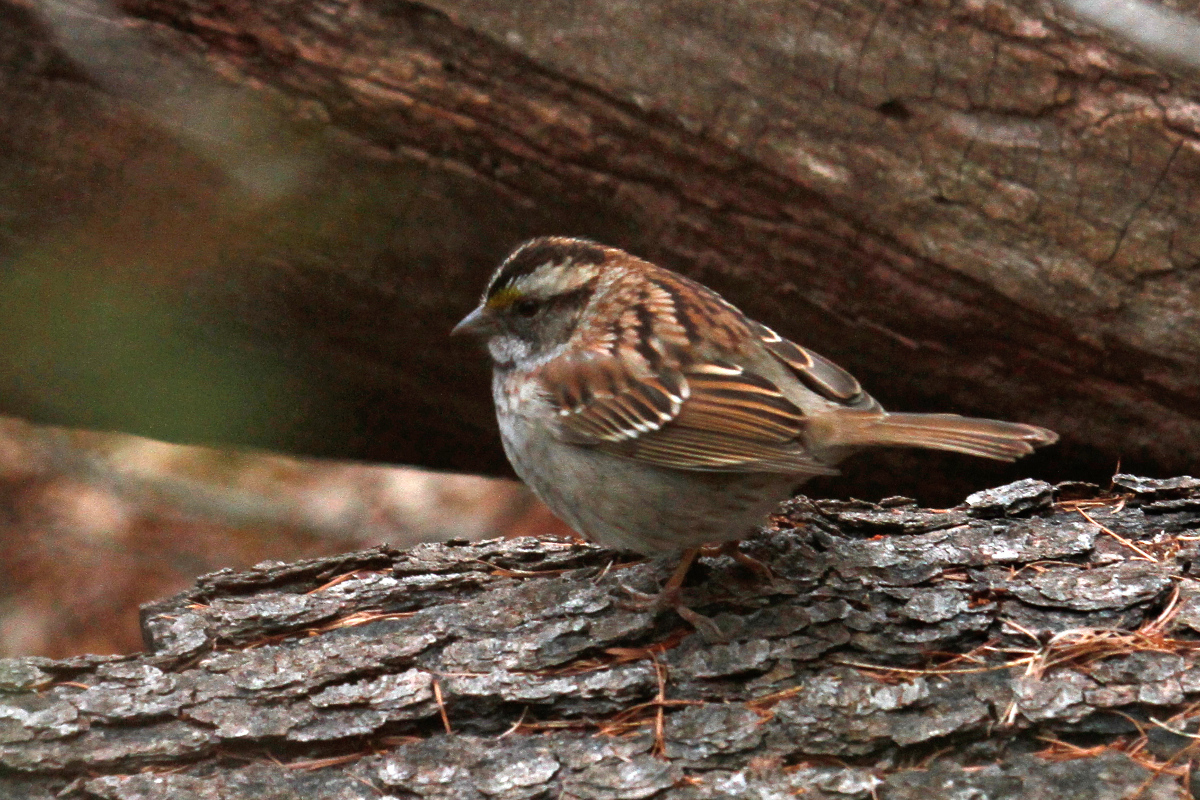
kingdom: Animalia
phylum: Chordata
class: Aves
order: Passeriformes
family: Passerellidae
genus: Zonotrichia
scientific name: Zonotrichia albicollis
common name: White-throated sparrow
